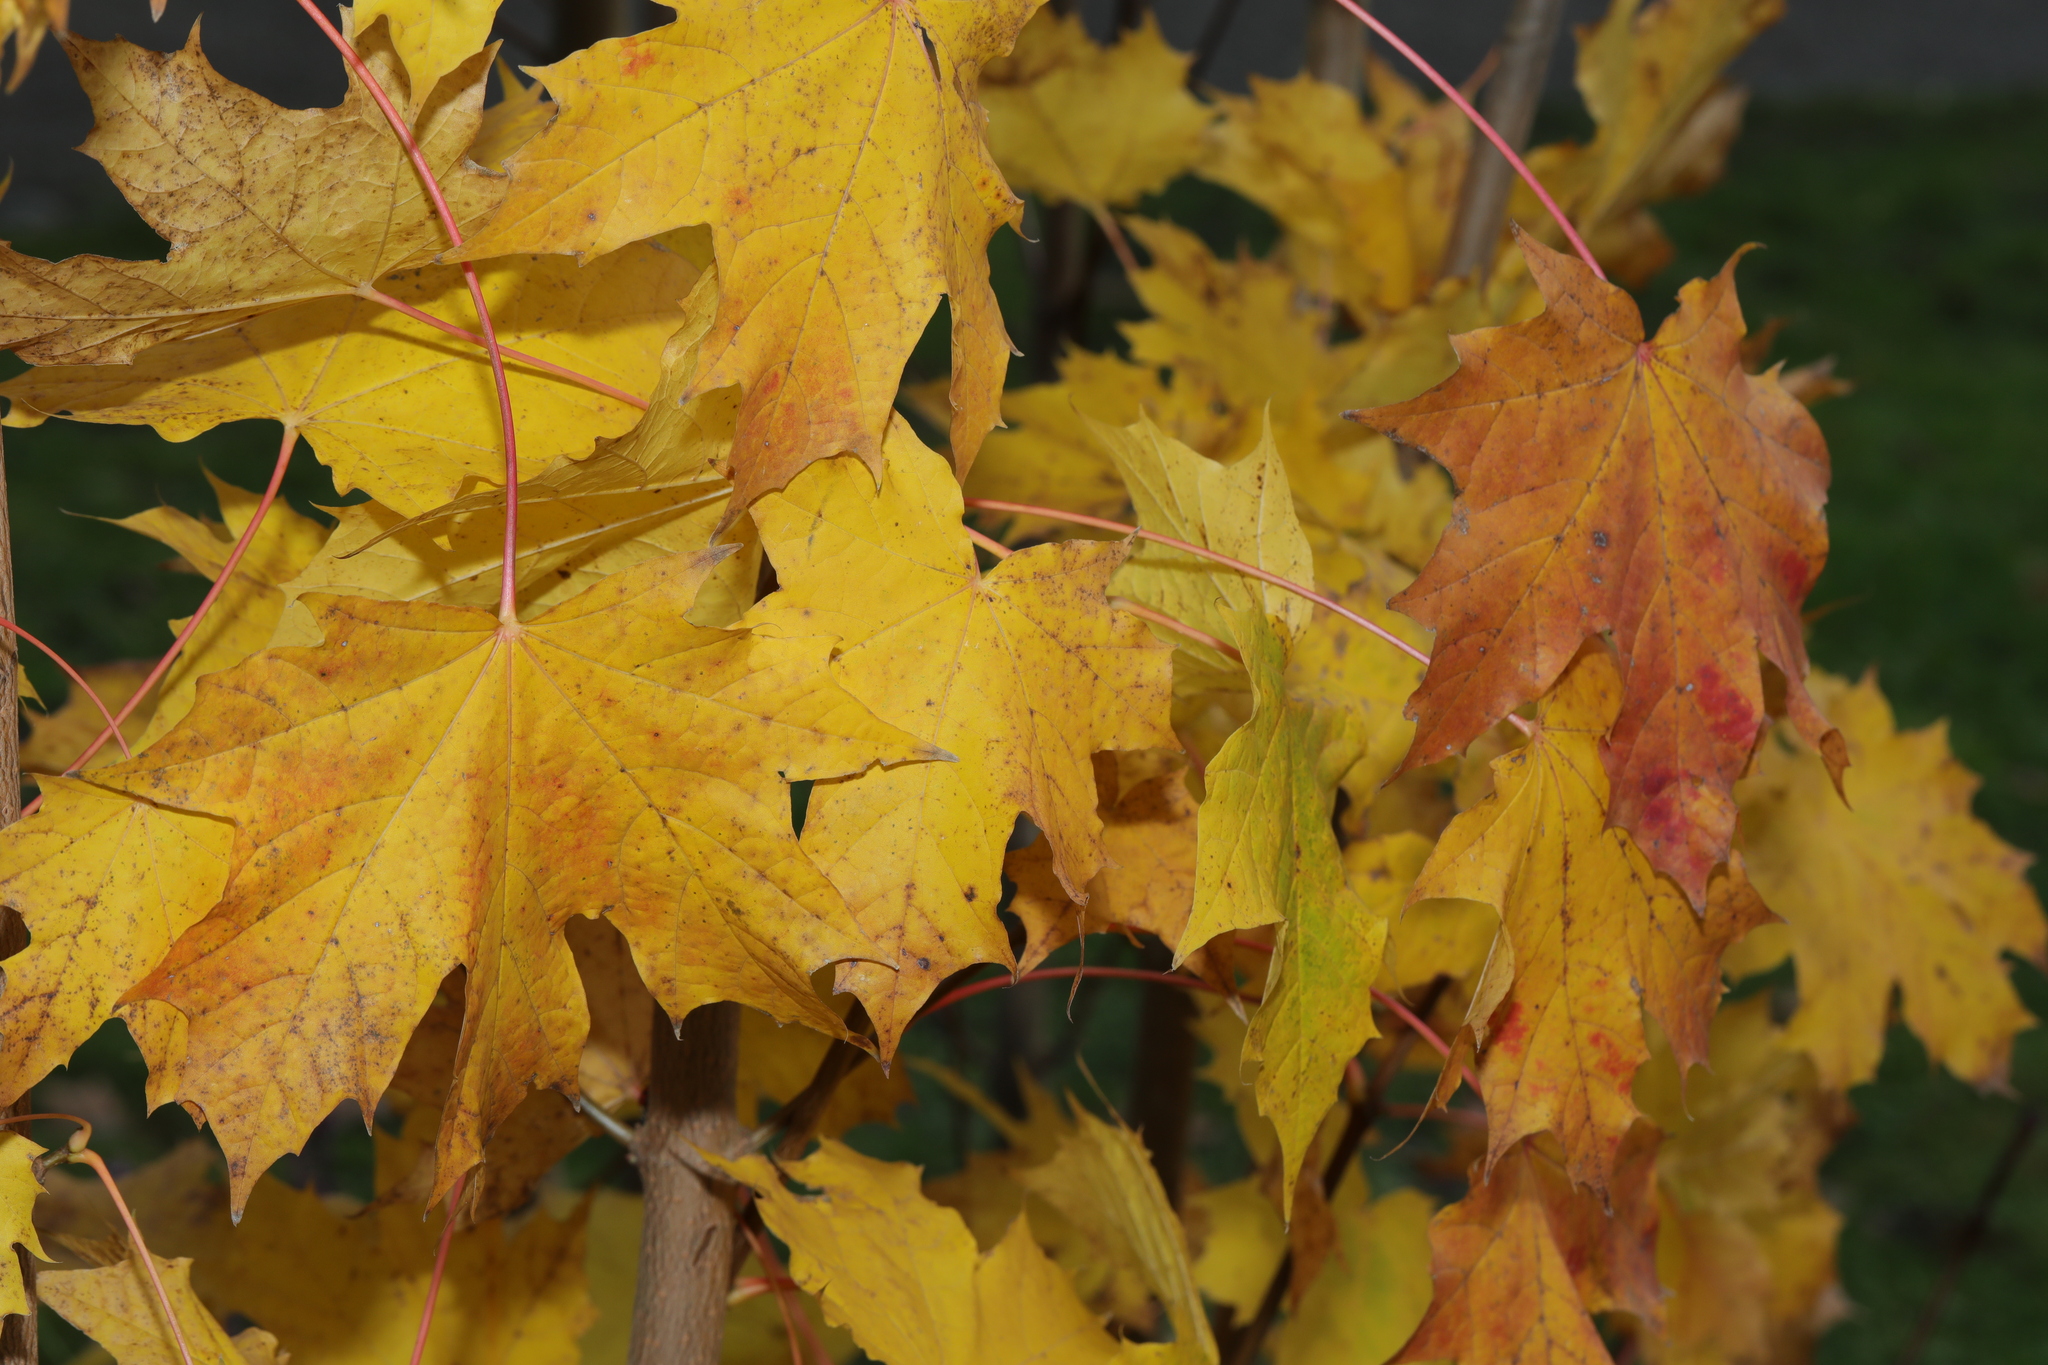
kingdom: Plantae
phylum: Tracheophyta
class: Magnoliopsida
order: Sapindales
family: Sapindaceae
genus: Acer
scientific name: Acer platanoides
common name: Norway maple
